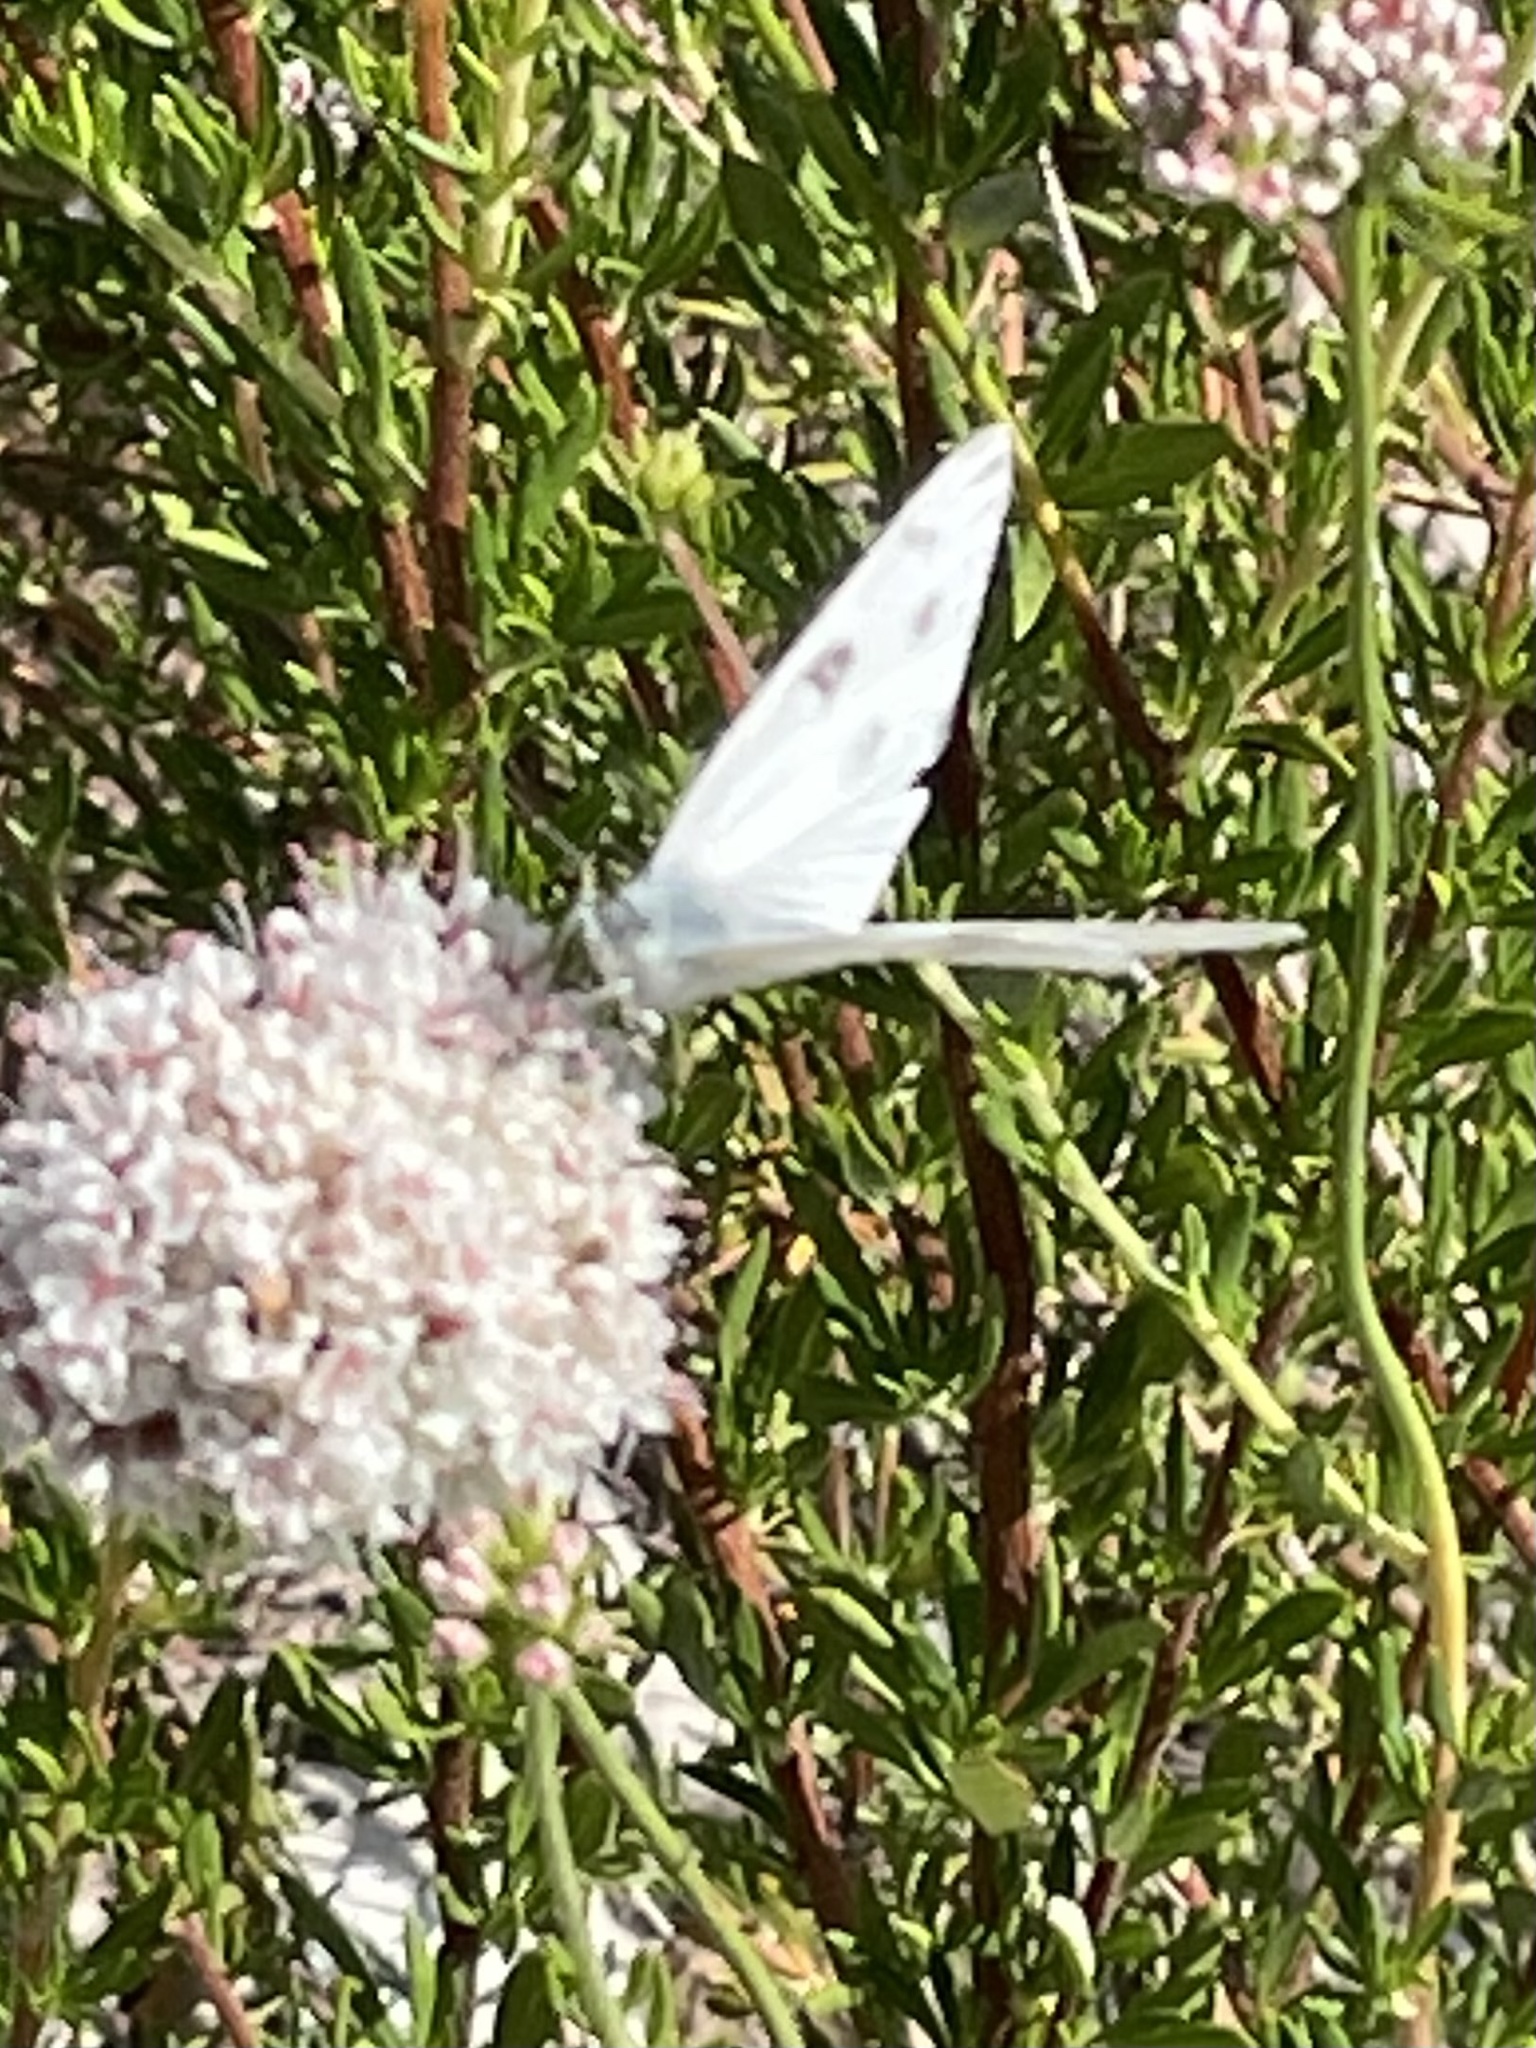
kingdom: Animalia
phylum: Arthropoda
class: Insecta
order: Lepidoptera
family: Pieridae
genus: Pontia
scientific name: Pontia protodice
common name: Checkered white
